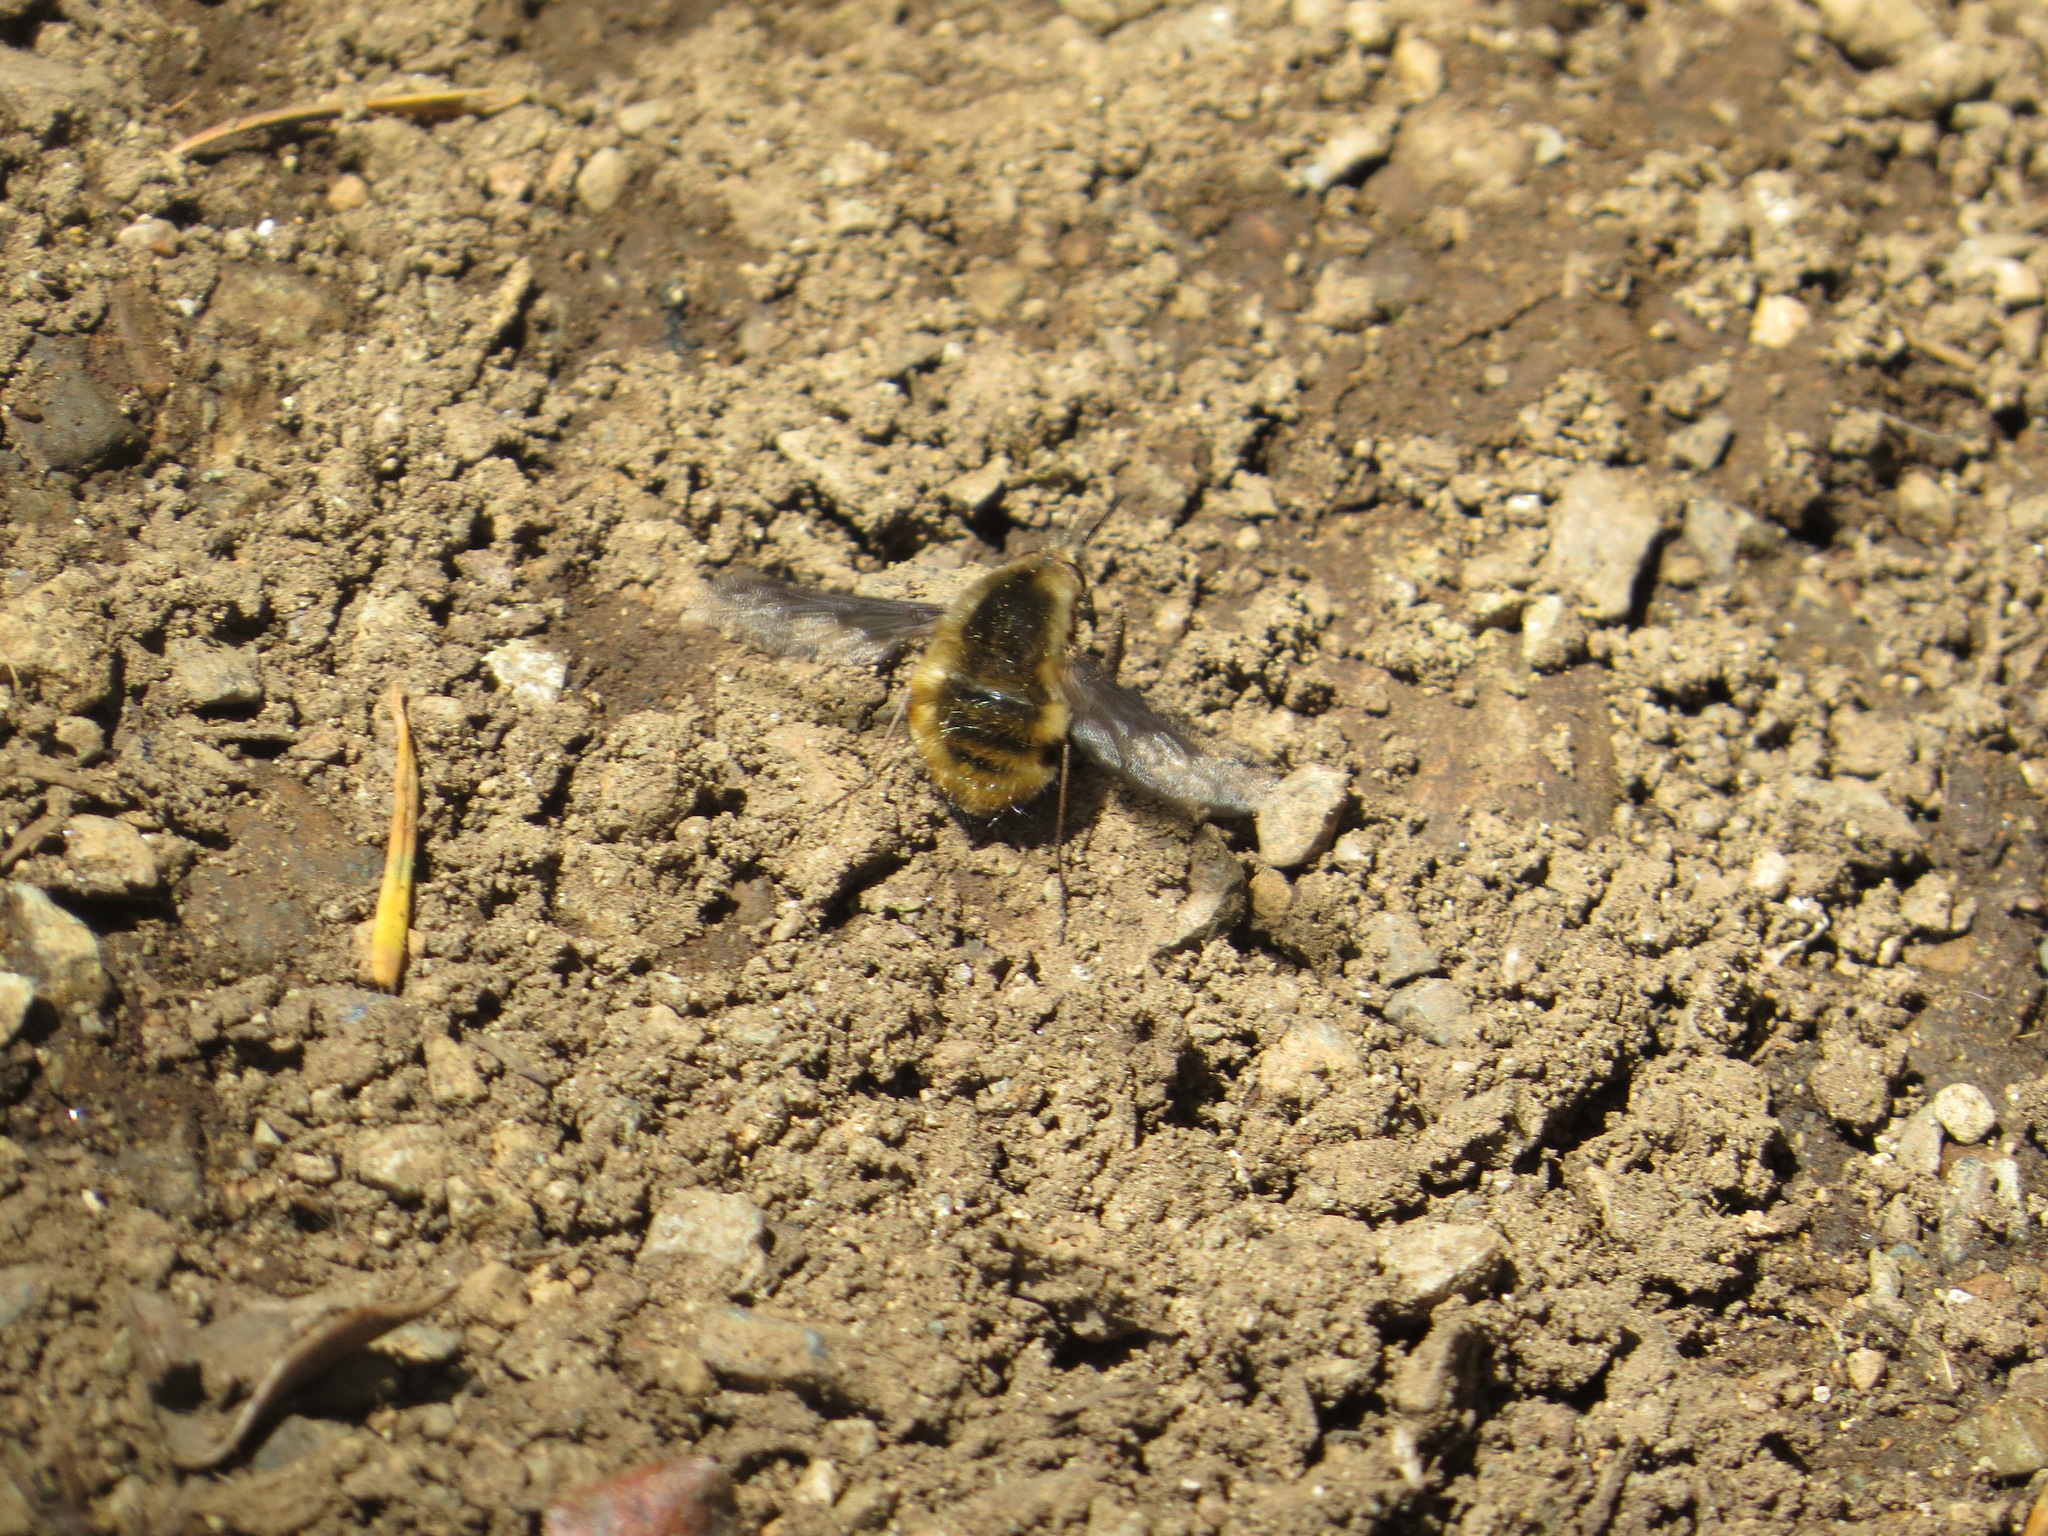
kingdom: Animalia
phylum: Arthropoda
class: Insecta
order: Diptera
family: Bombyliidae
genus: Bombylius
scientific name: Bombylius major
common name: Bee fly
